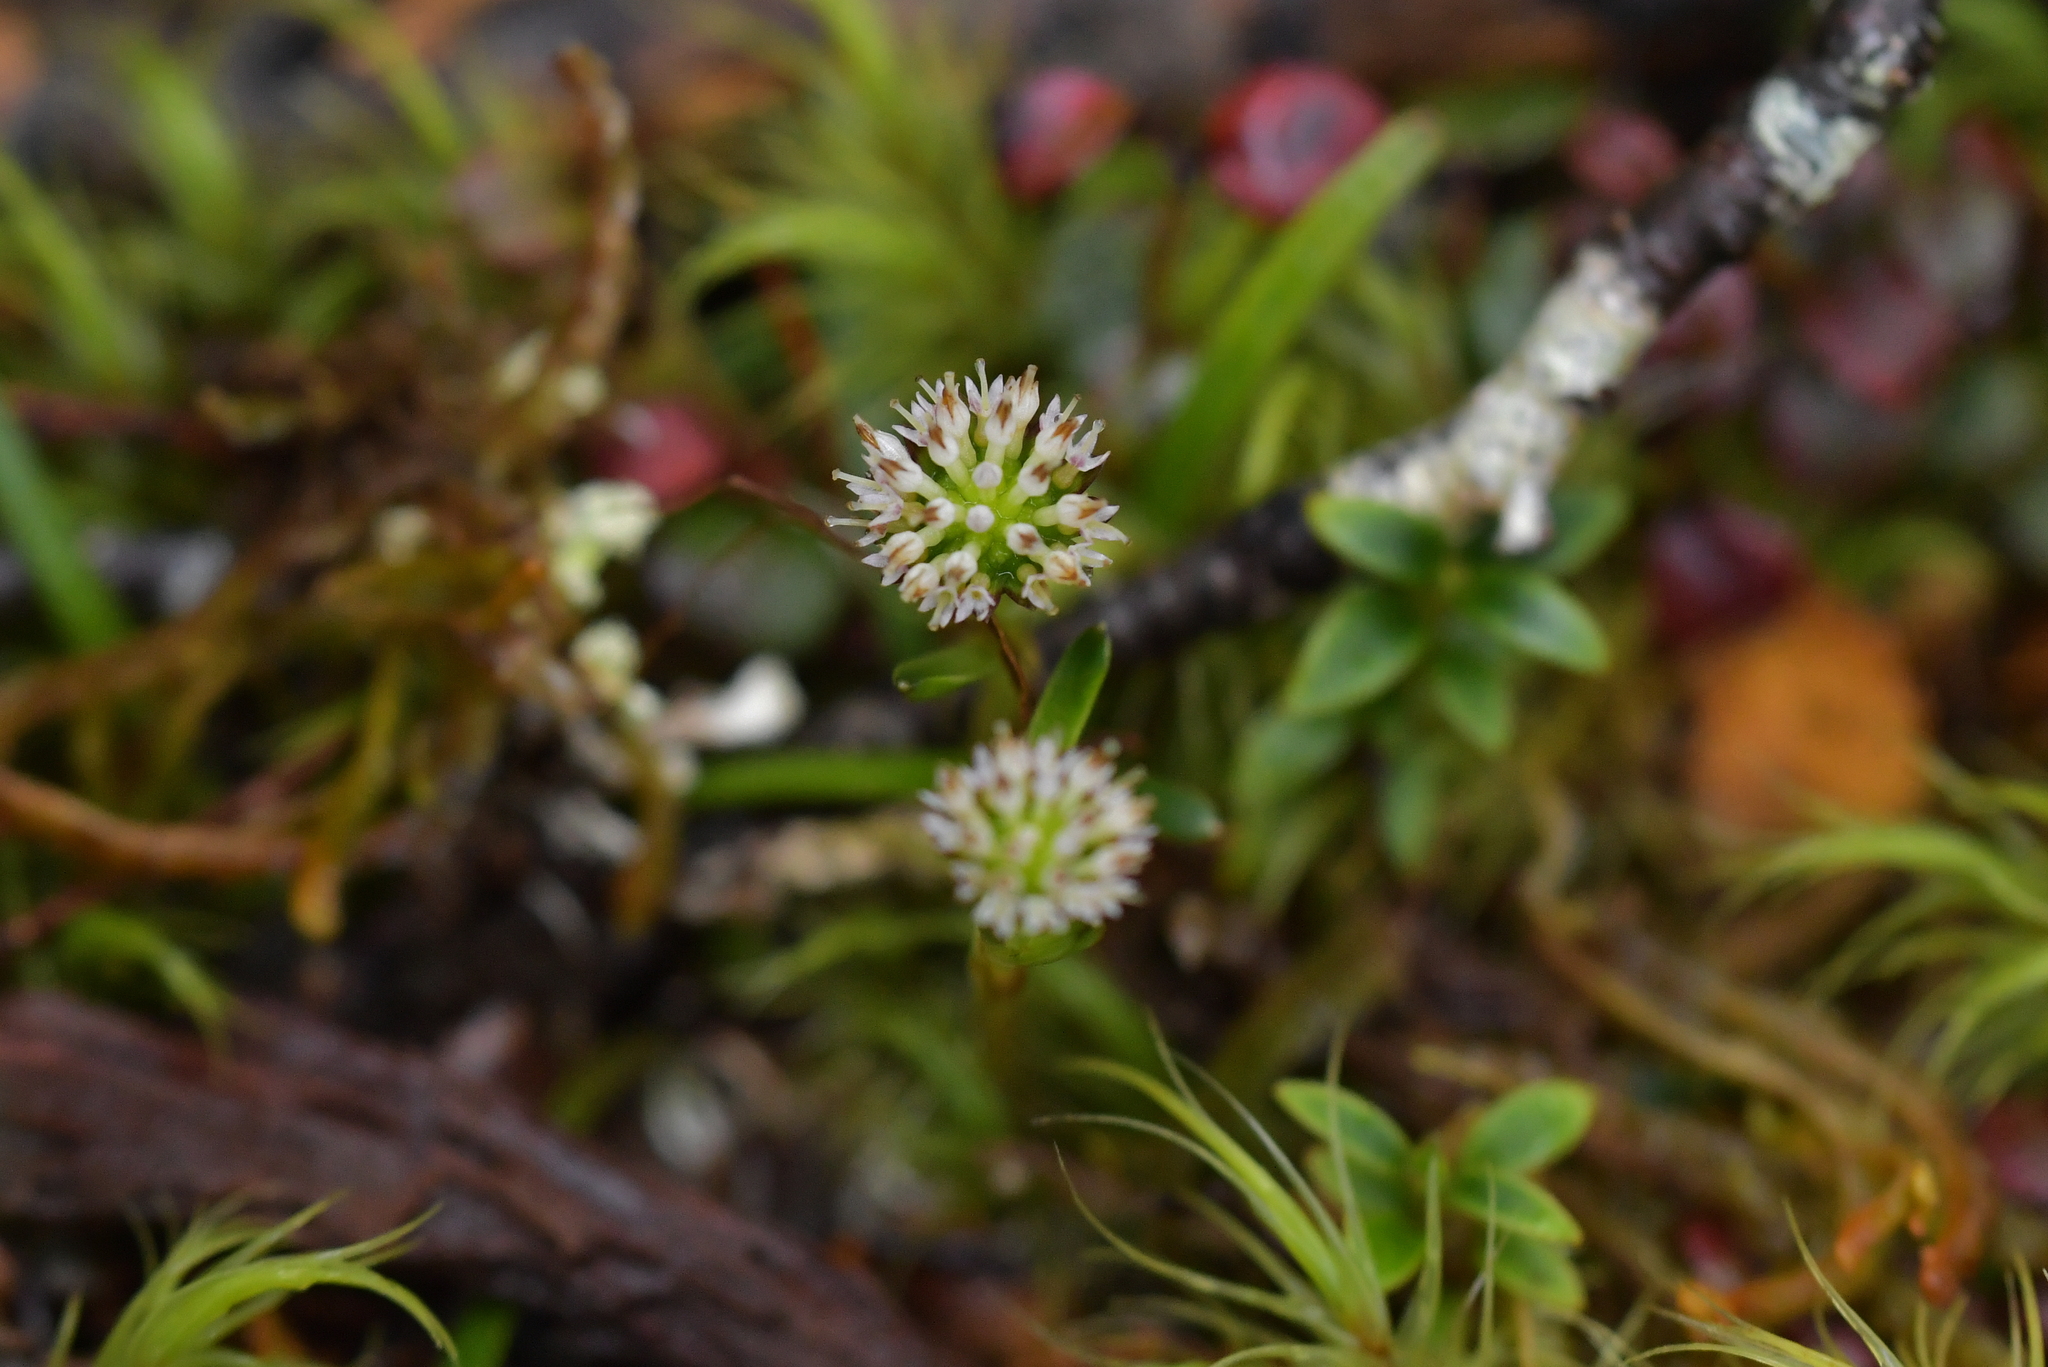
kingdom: Plantae
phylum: Tracheophyta
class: Magnoliopsida
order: Asterales
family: Asteraceae
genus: Abrotanella
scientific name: Abrotanella linearis
